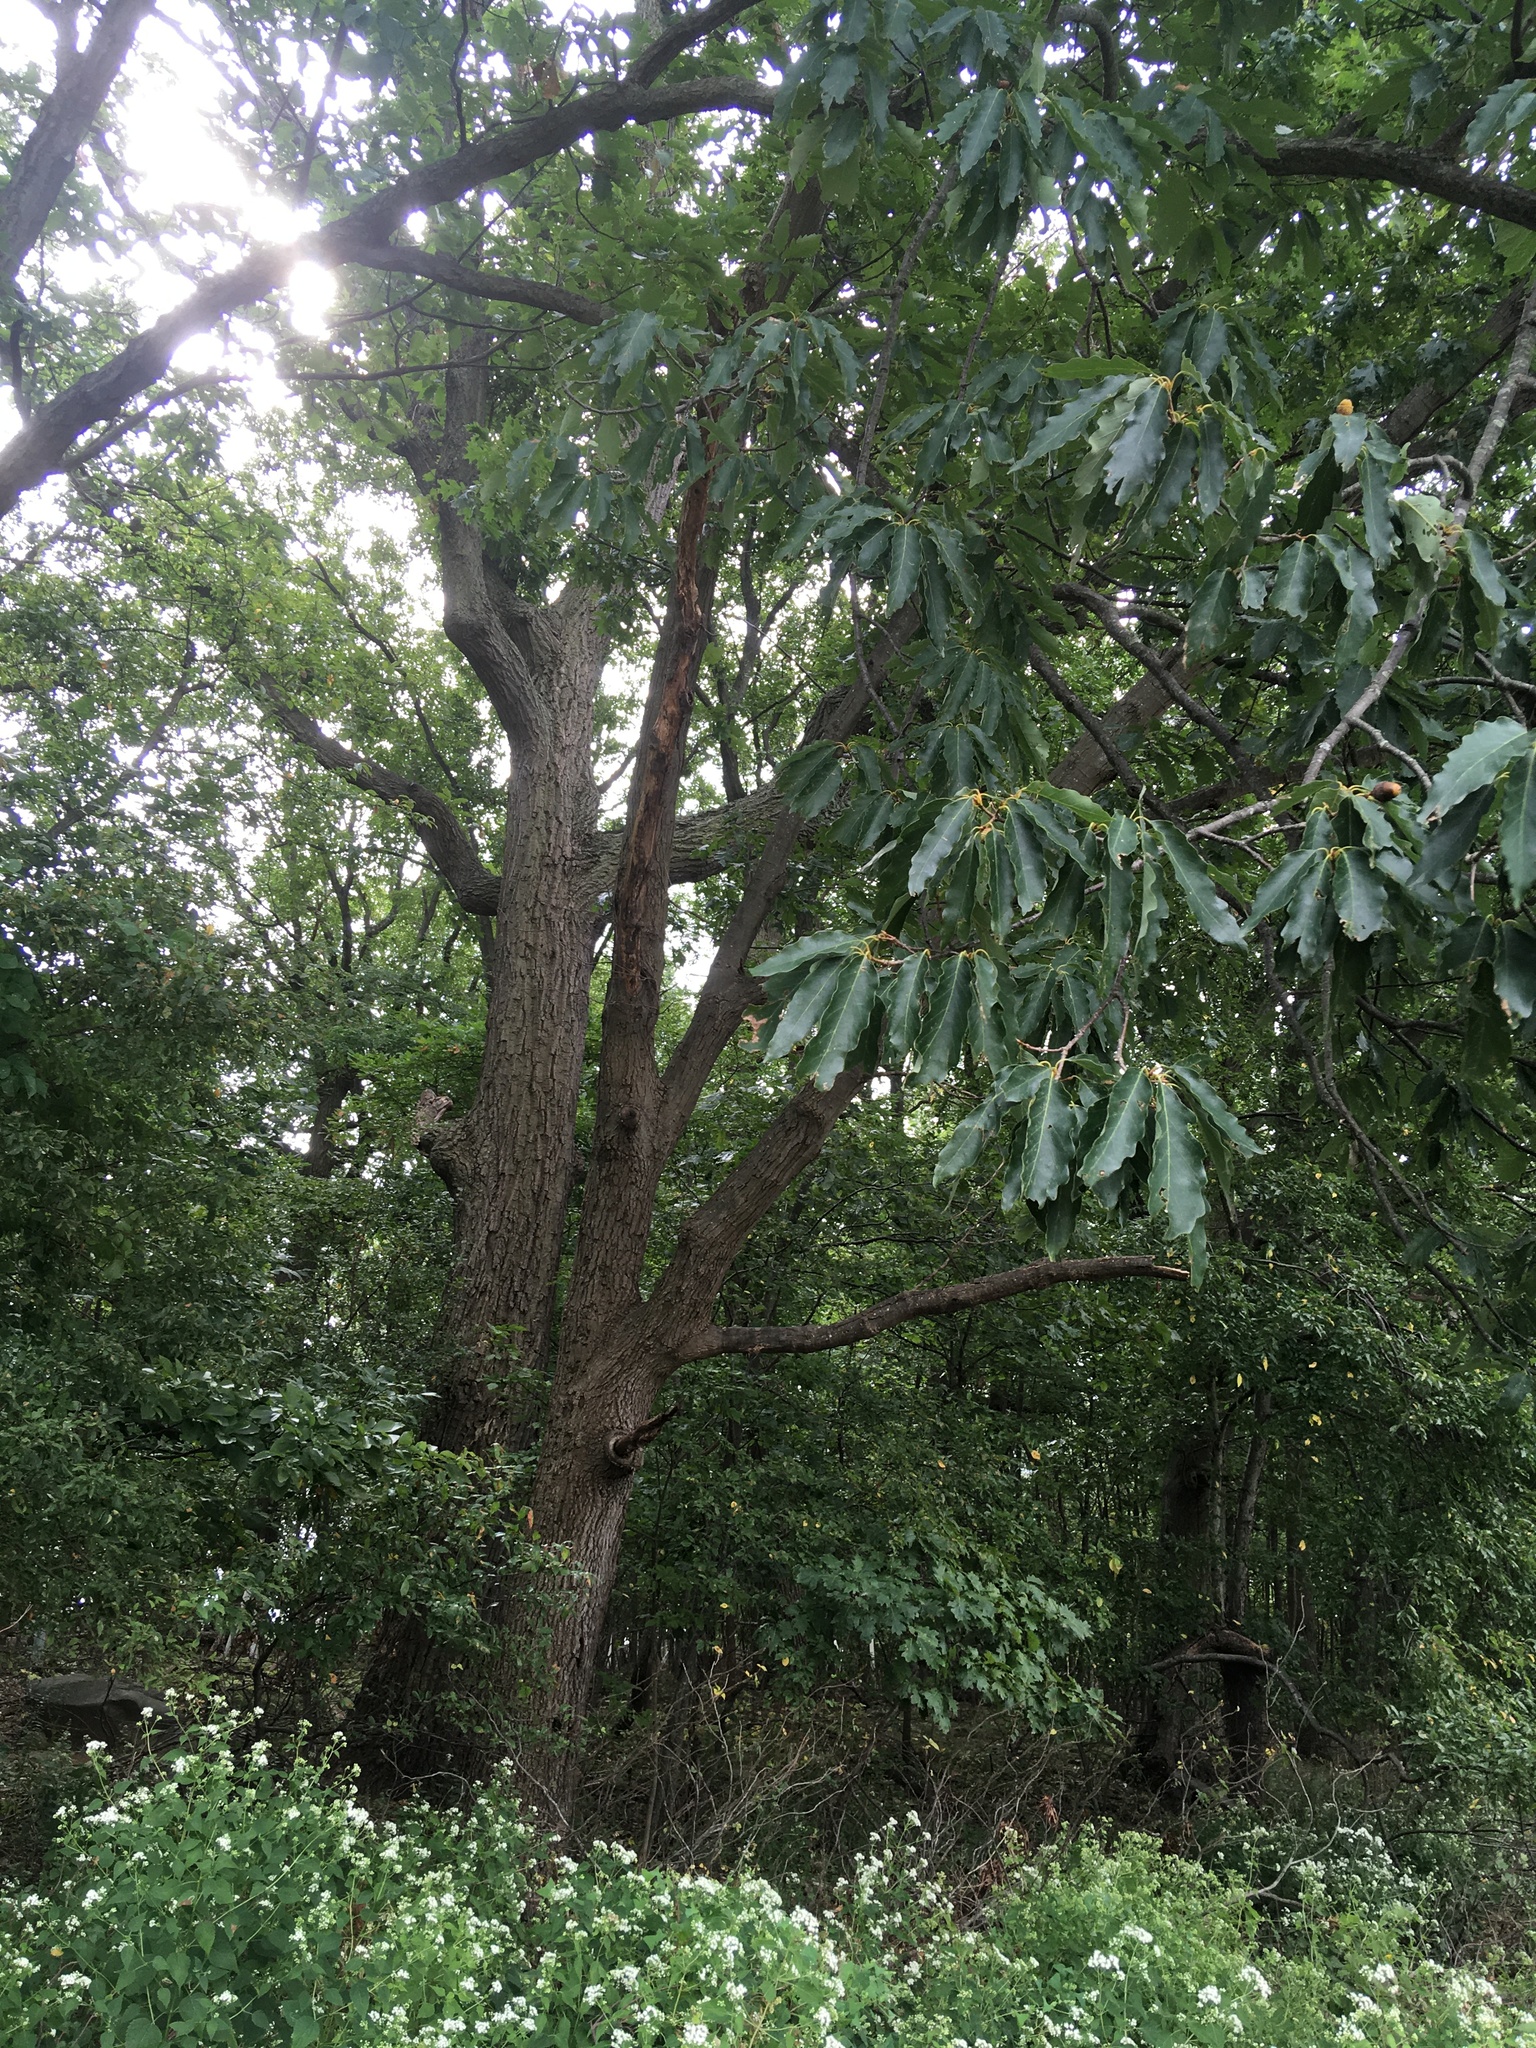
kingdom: Plantae
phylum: Tracheophyta
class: Magnoliopsida
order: Fagales
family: Fagaceae
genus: Quercus
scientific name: Quercus montana
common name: Chestnut oak
